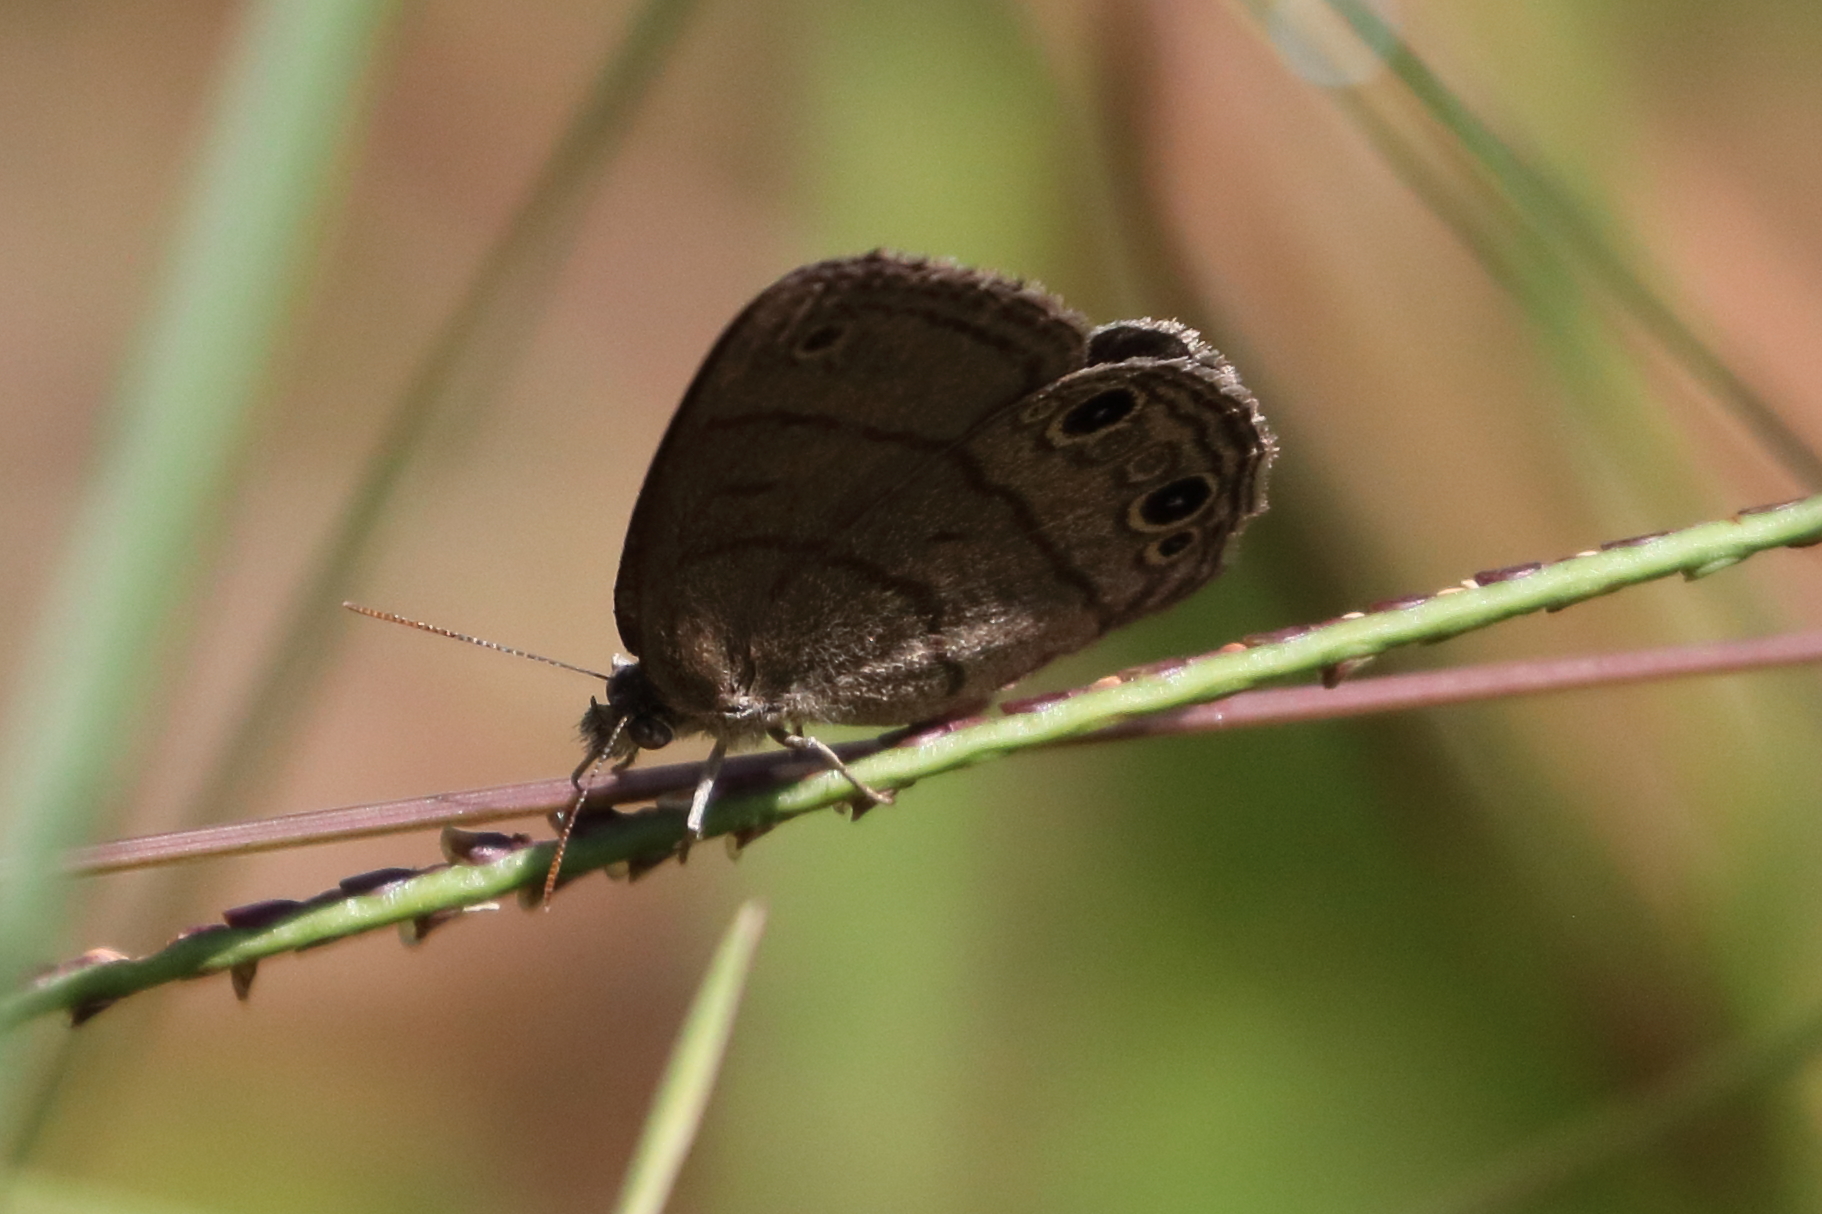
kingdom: Animalia
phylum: Arthropoda
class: Insecta
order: Lepidoptera
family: Nymphalidae
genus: Hermeuptychia
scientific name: Hermeuptychia hermes
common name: Hermes satyr
